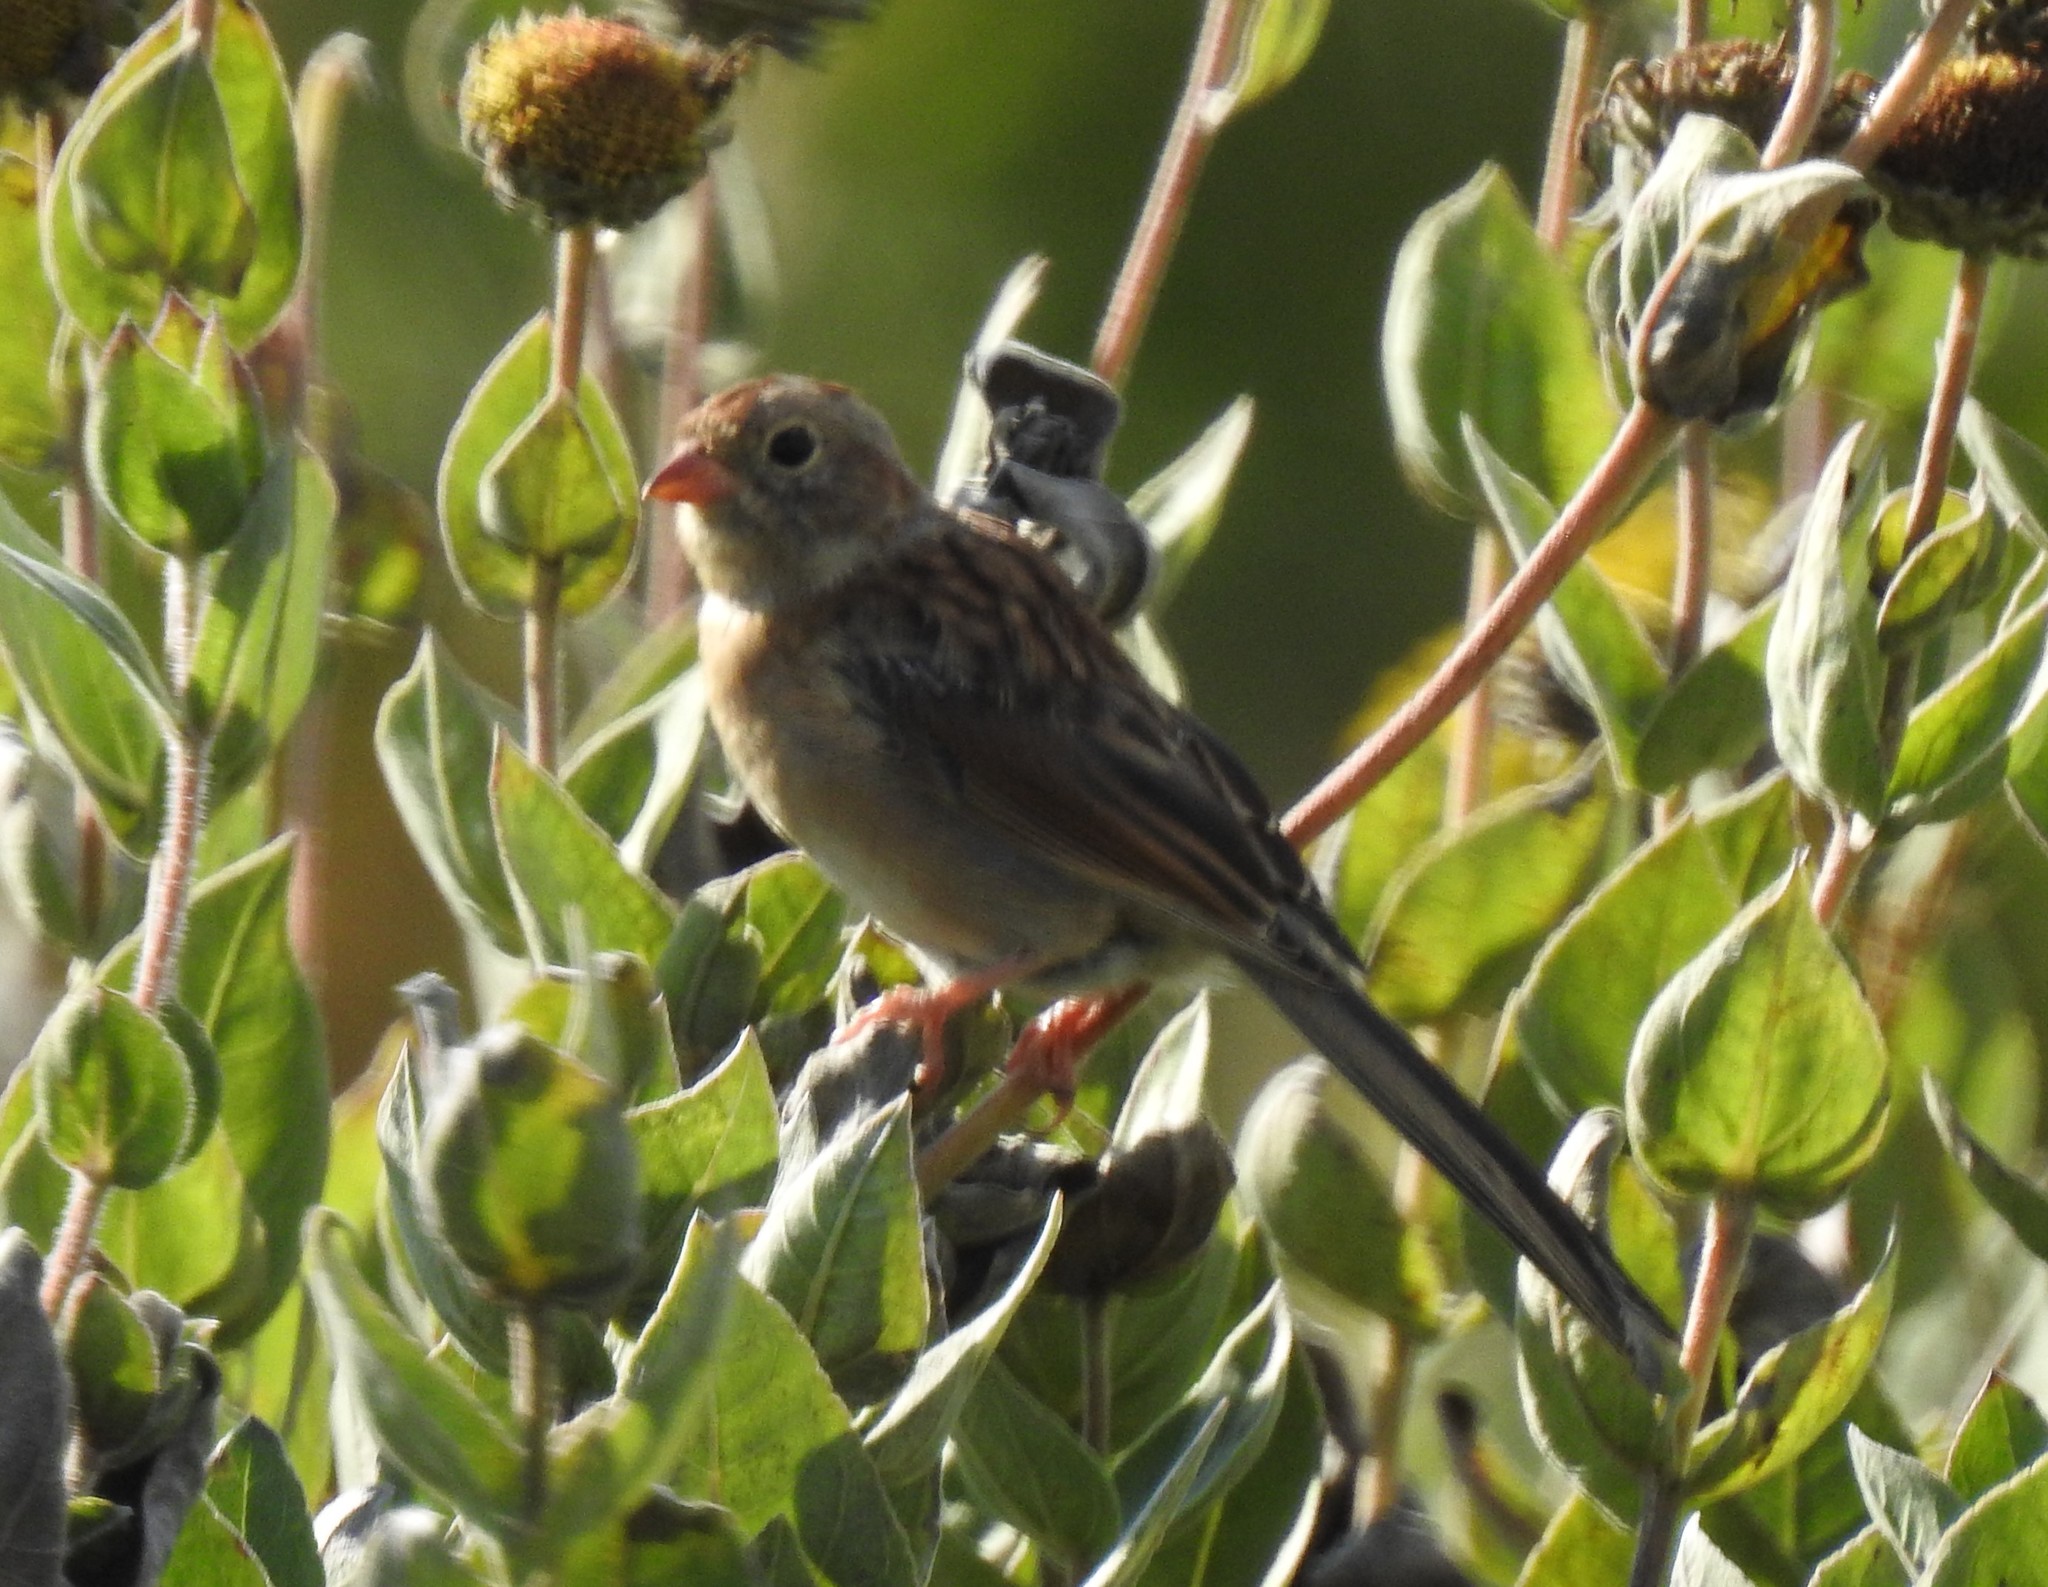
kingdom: Animalia
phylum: Chordata
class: Aves
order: Passeriformes
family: Passerellidae
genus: Spizella
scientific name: Spizella pusilla
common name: Field sparrow
